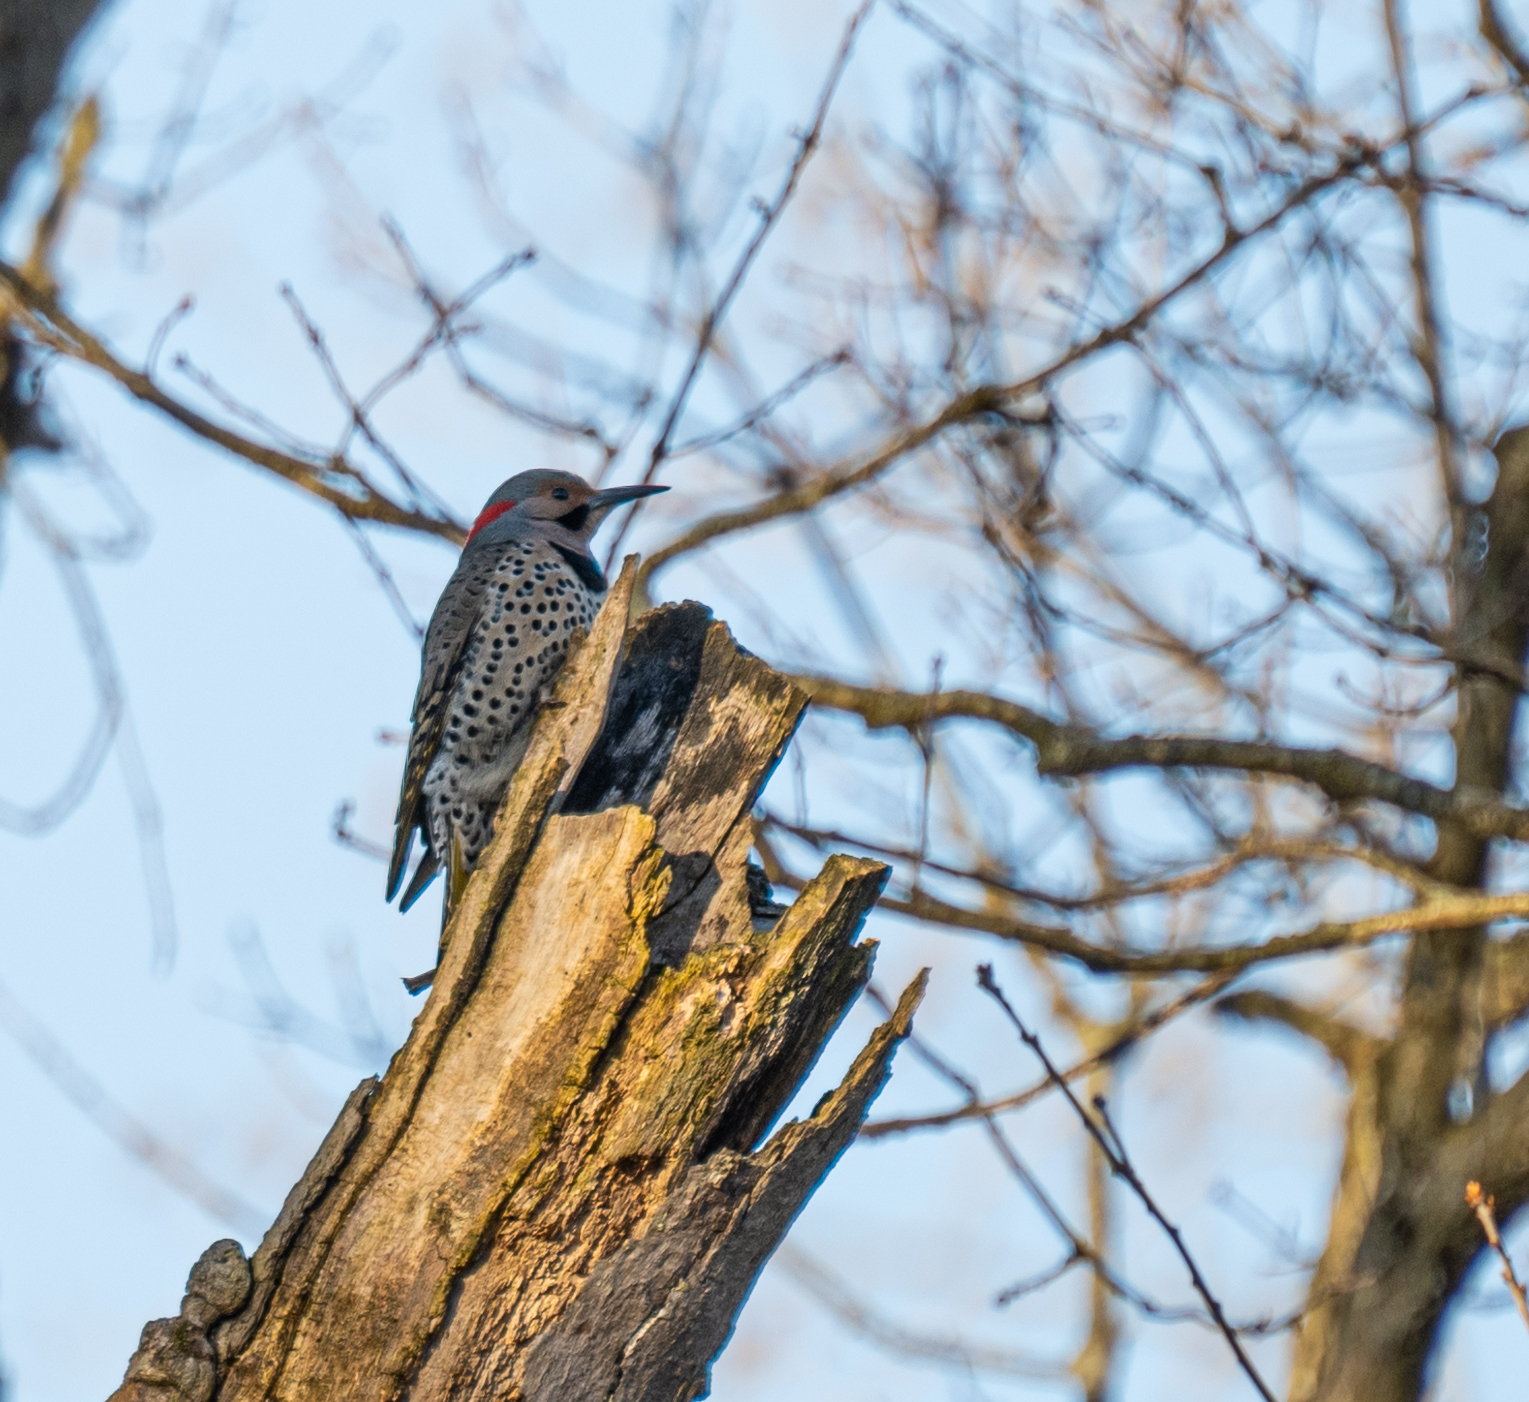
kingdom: Animalia
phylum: Chordata
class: Aves
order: Piciformes
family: Picidae
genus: Colaptes
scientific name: Colaptes auratus
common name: Northern flicker
